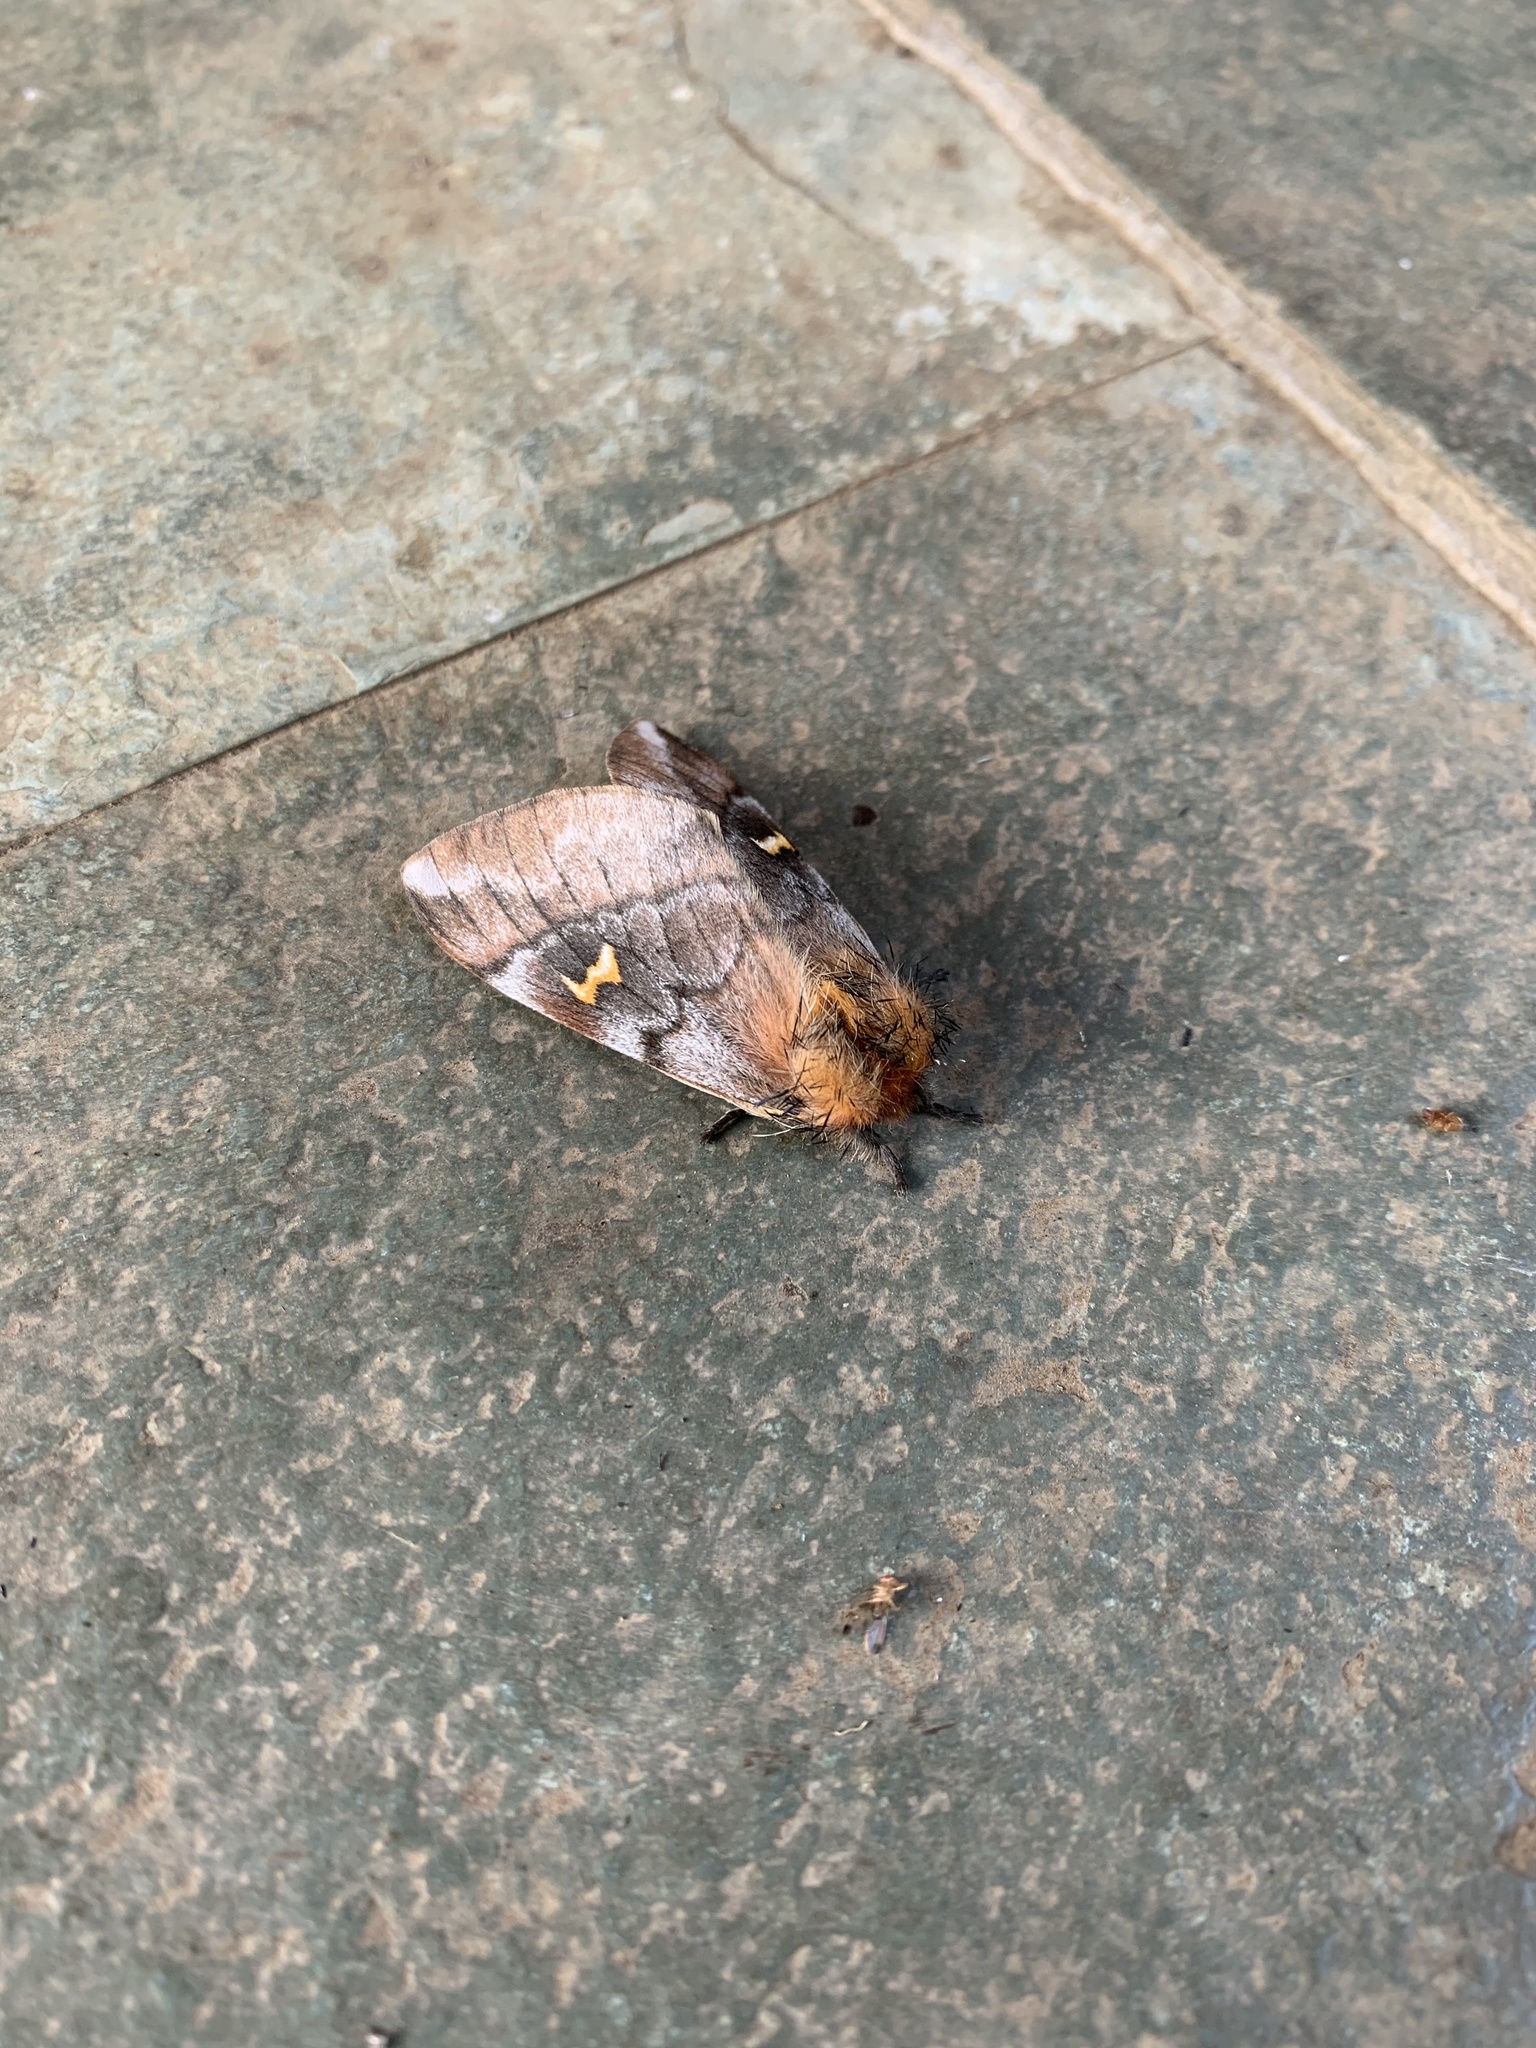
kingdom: Animalia
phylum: Arthropoda
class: Insecta
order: Lepidoptera
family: Saturniidae
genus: Ormiscodes
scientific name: Ormiscodes amphinome
